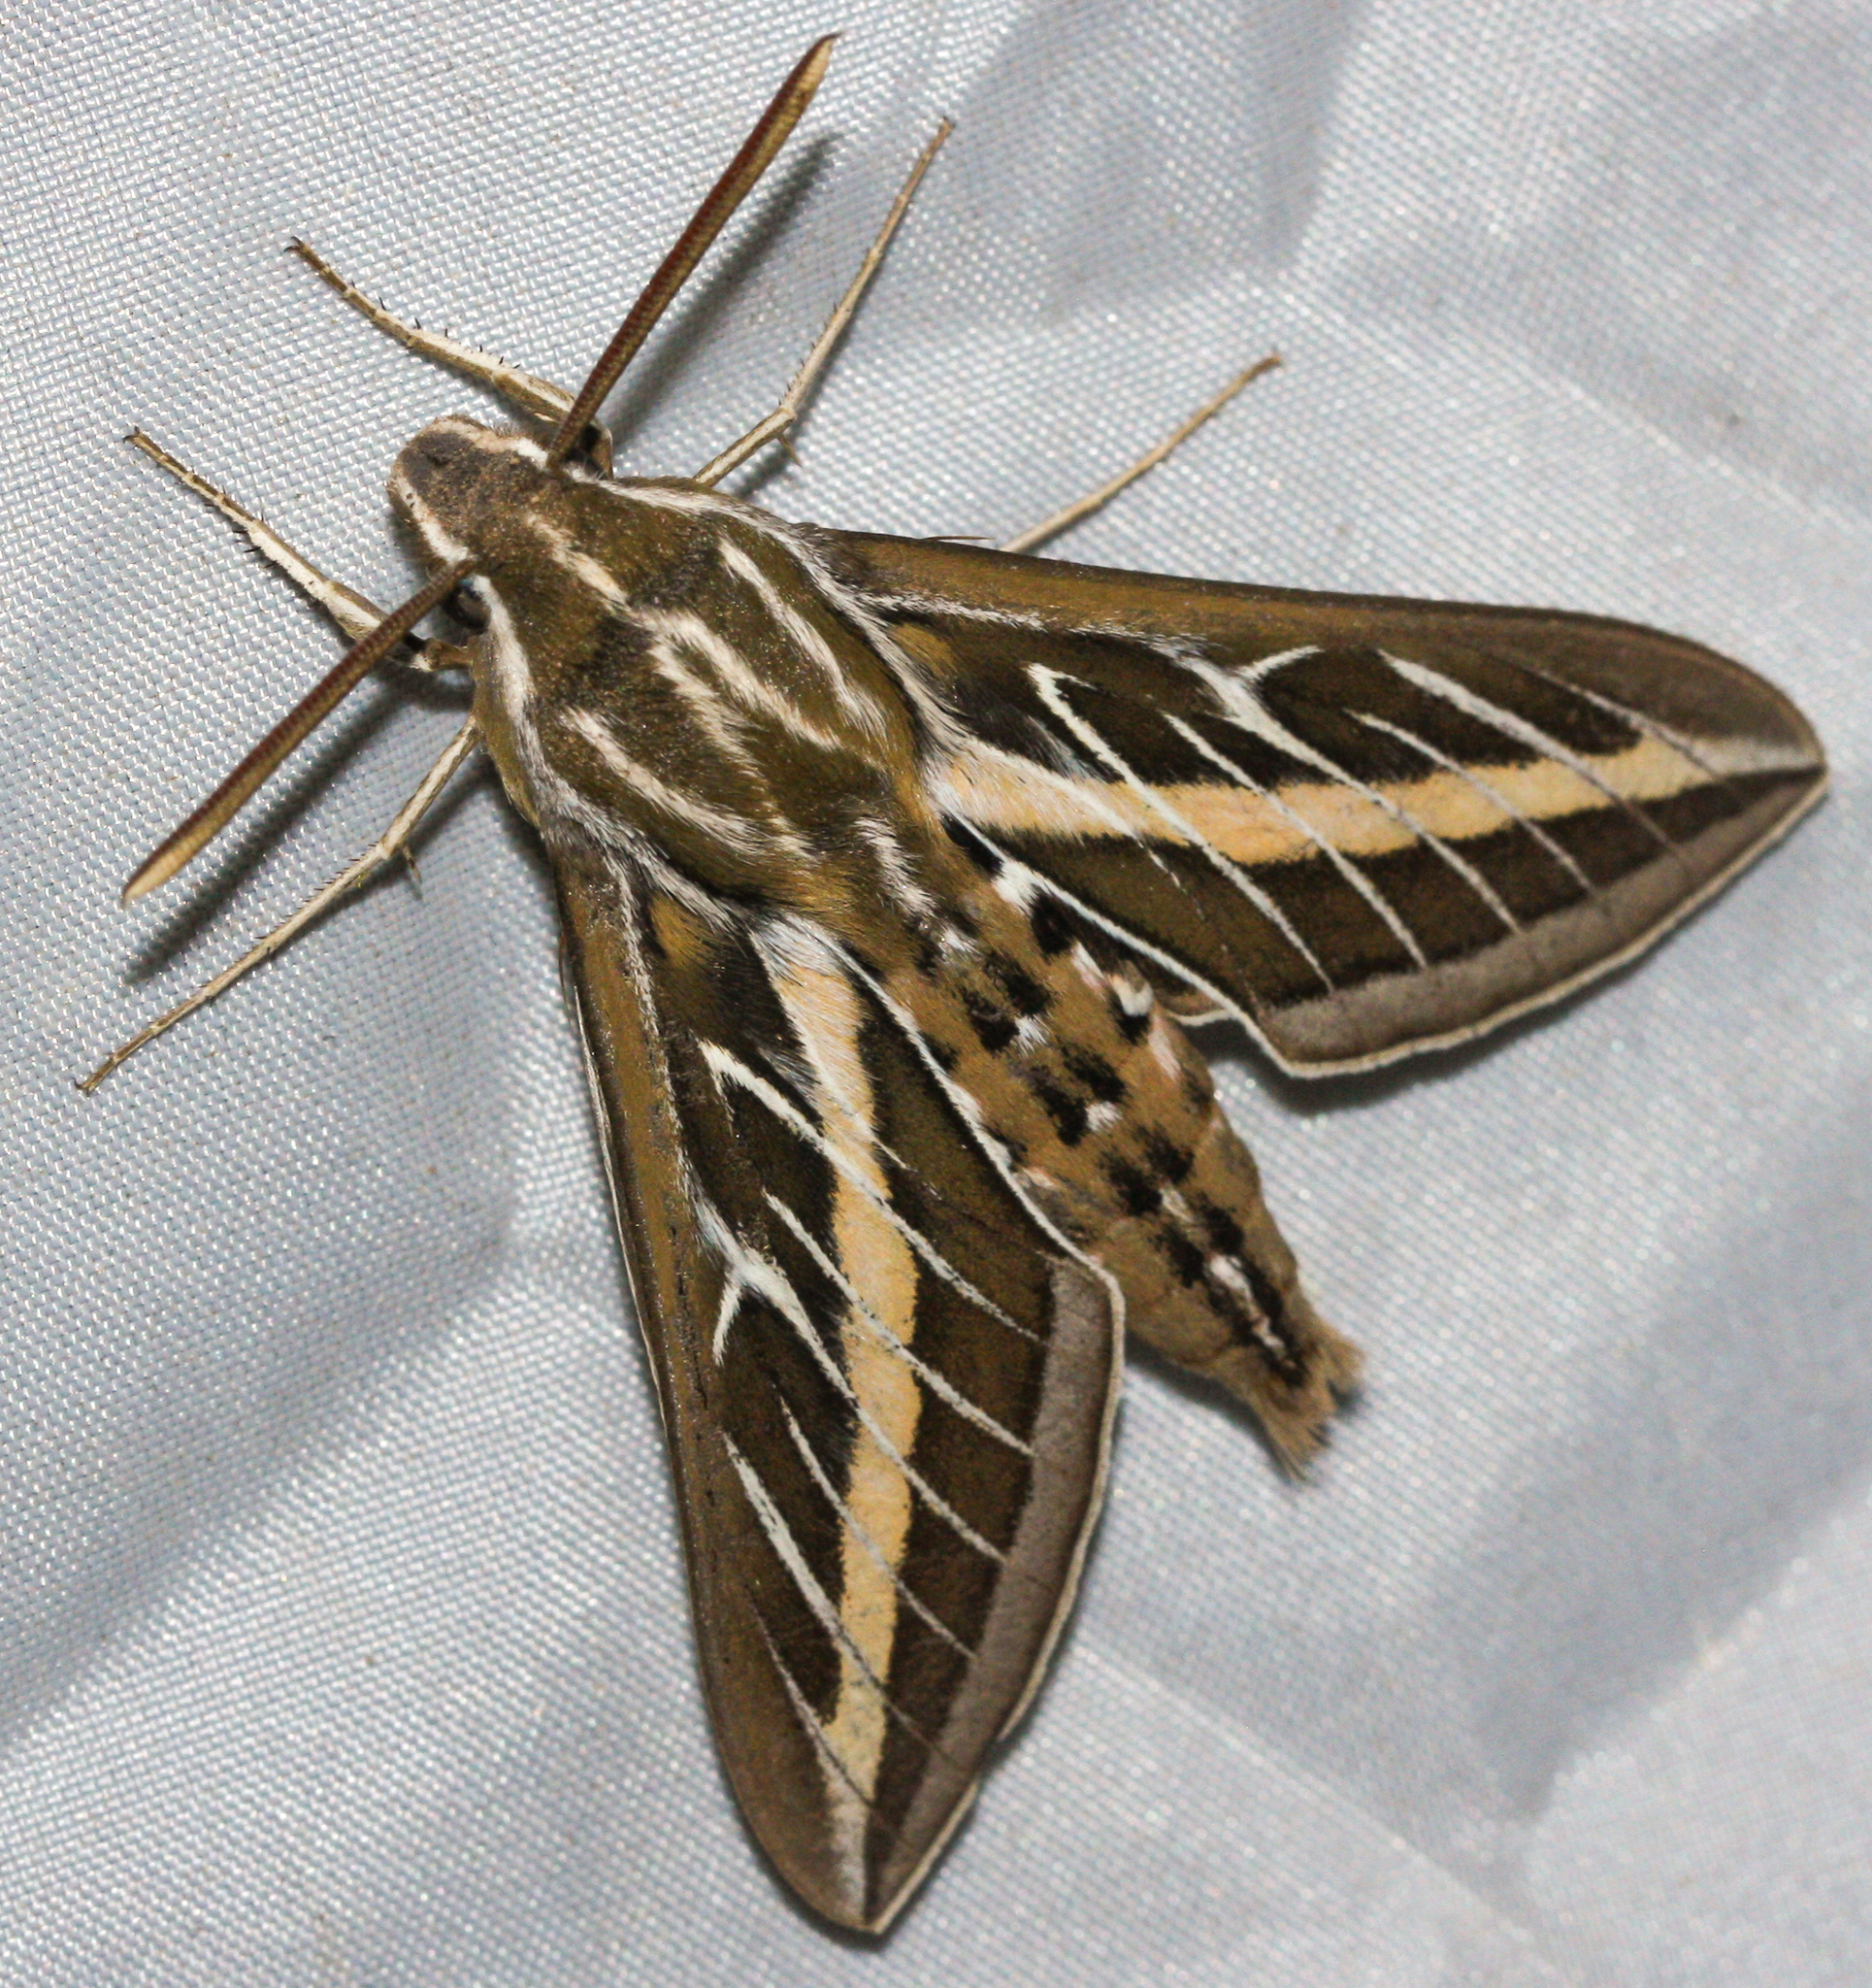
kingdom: Animalia
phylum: Arthropoda
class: Insecta
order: Lepidoptera
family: Sphingidae
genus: Hyles
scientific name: Hyles lineata
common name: White-lined sphinx
